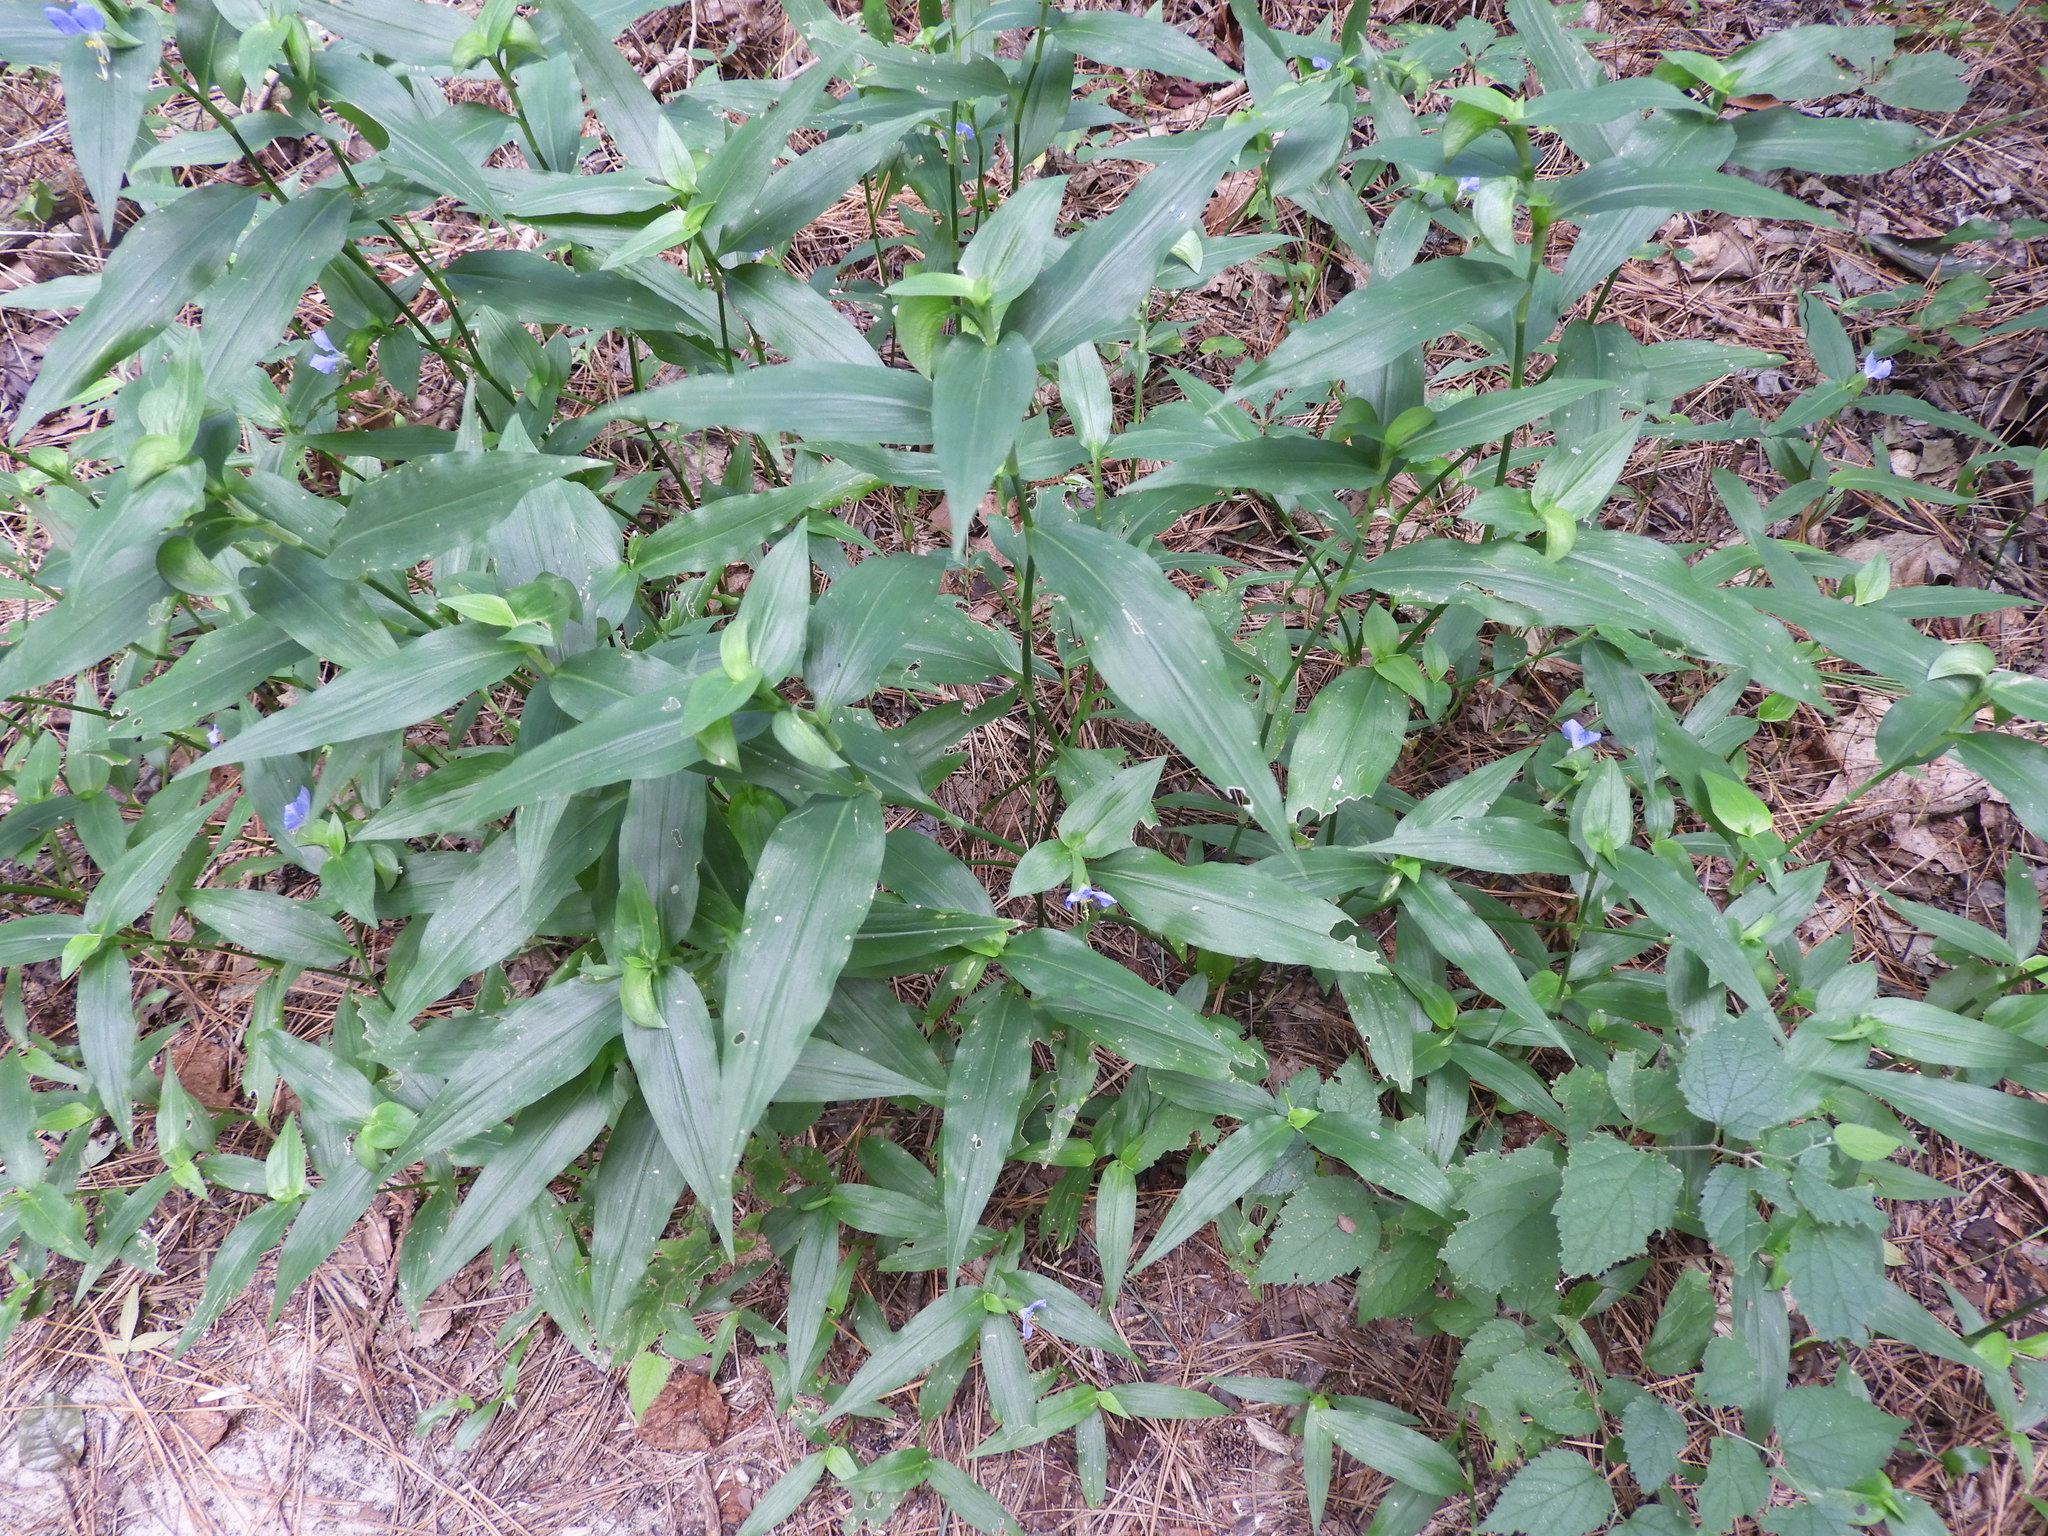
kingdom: Plantae
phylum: Tracheophyta
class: Liliopsida
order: Commelinales
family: Commelinaceae
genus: Commelina
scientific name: Commelina communis
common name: Asiatic dayflower
